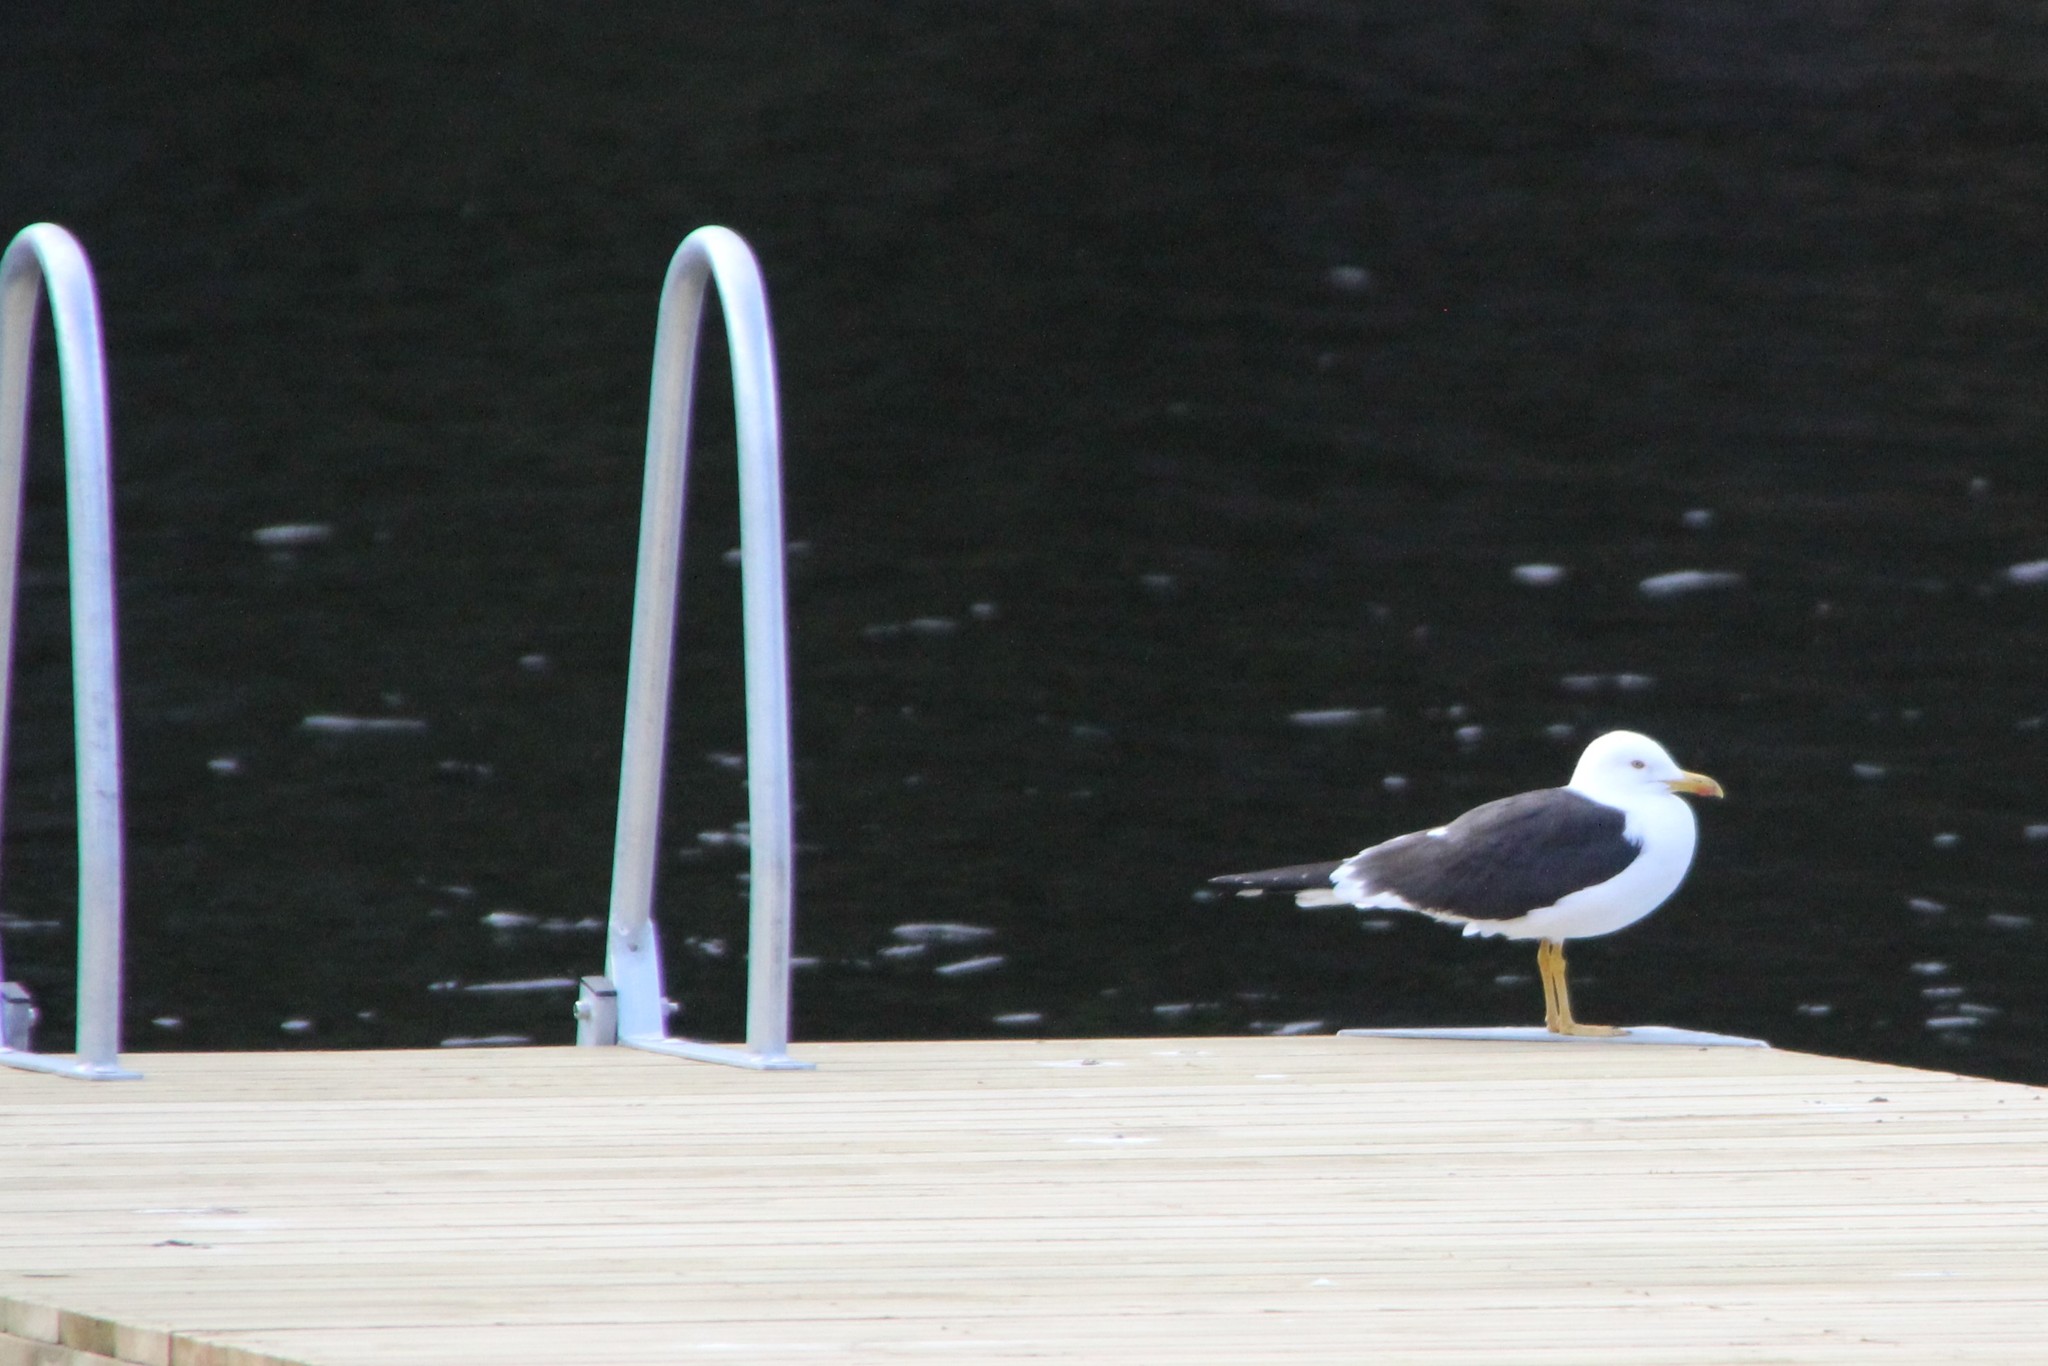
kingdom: Animalia
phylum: Chordata
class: Aves
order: Charadriiformes
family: Laridae
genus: Larus
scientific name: Larus fuscus
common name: Lesser black-backed gull
